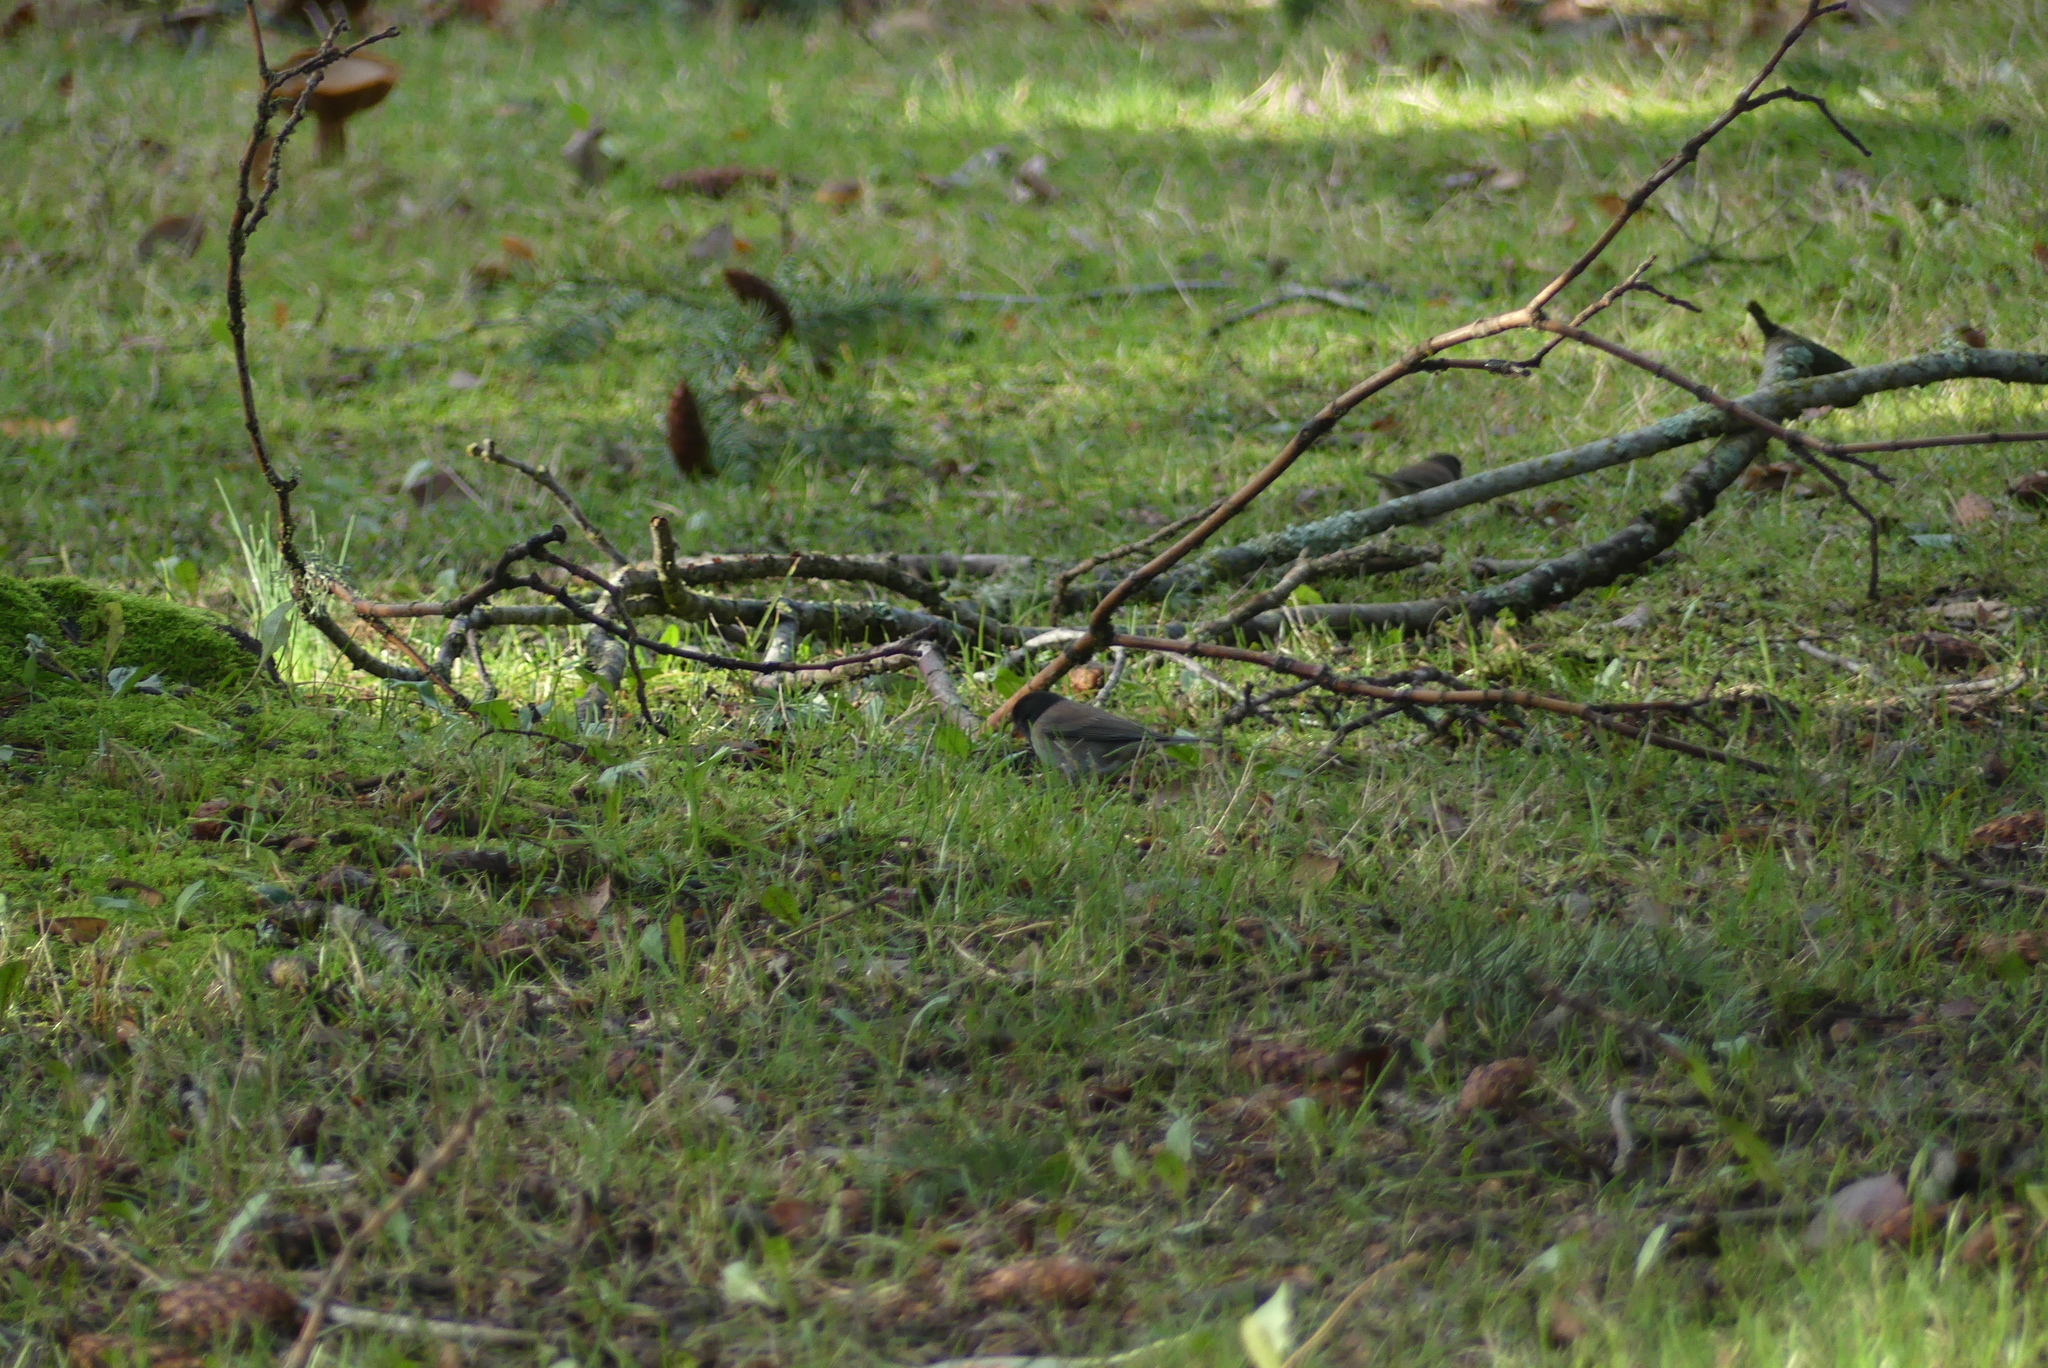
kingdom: Animalia
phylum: Chordata
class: Aves
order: Passeriformes
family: Passerellidae
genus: Junco
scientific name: Junco hyemalis
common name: Dark-eyed junco
